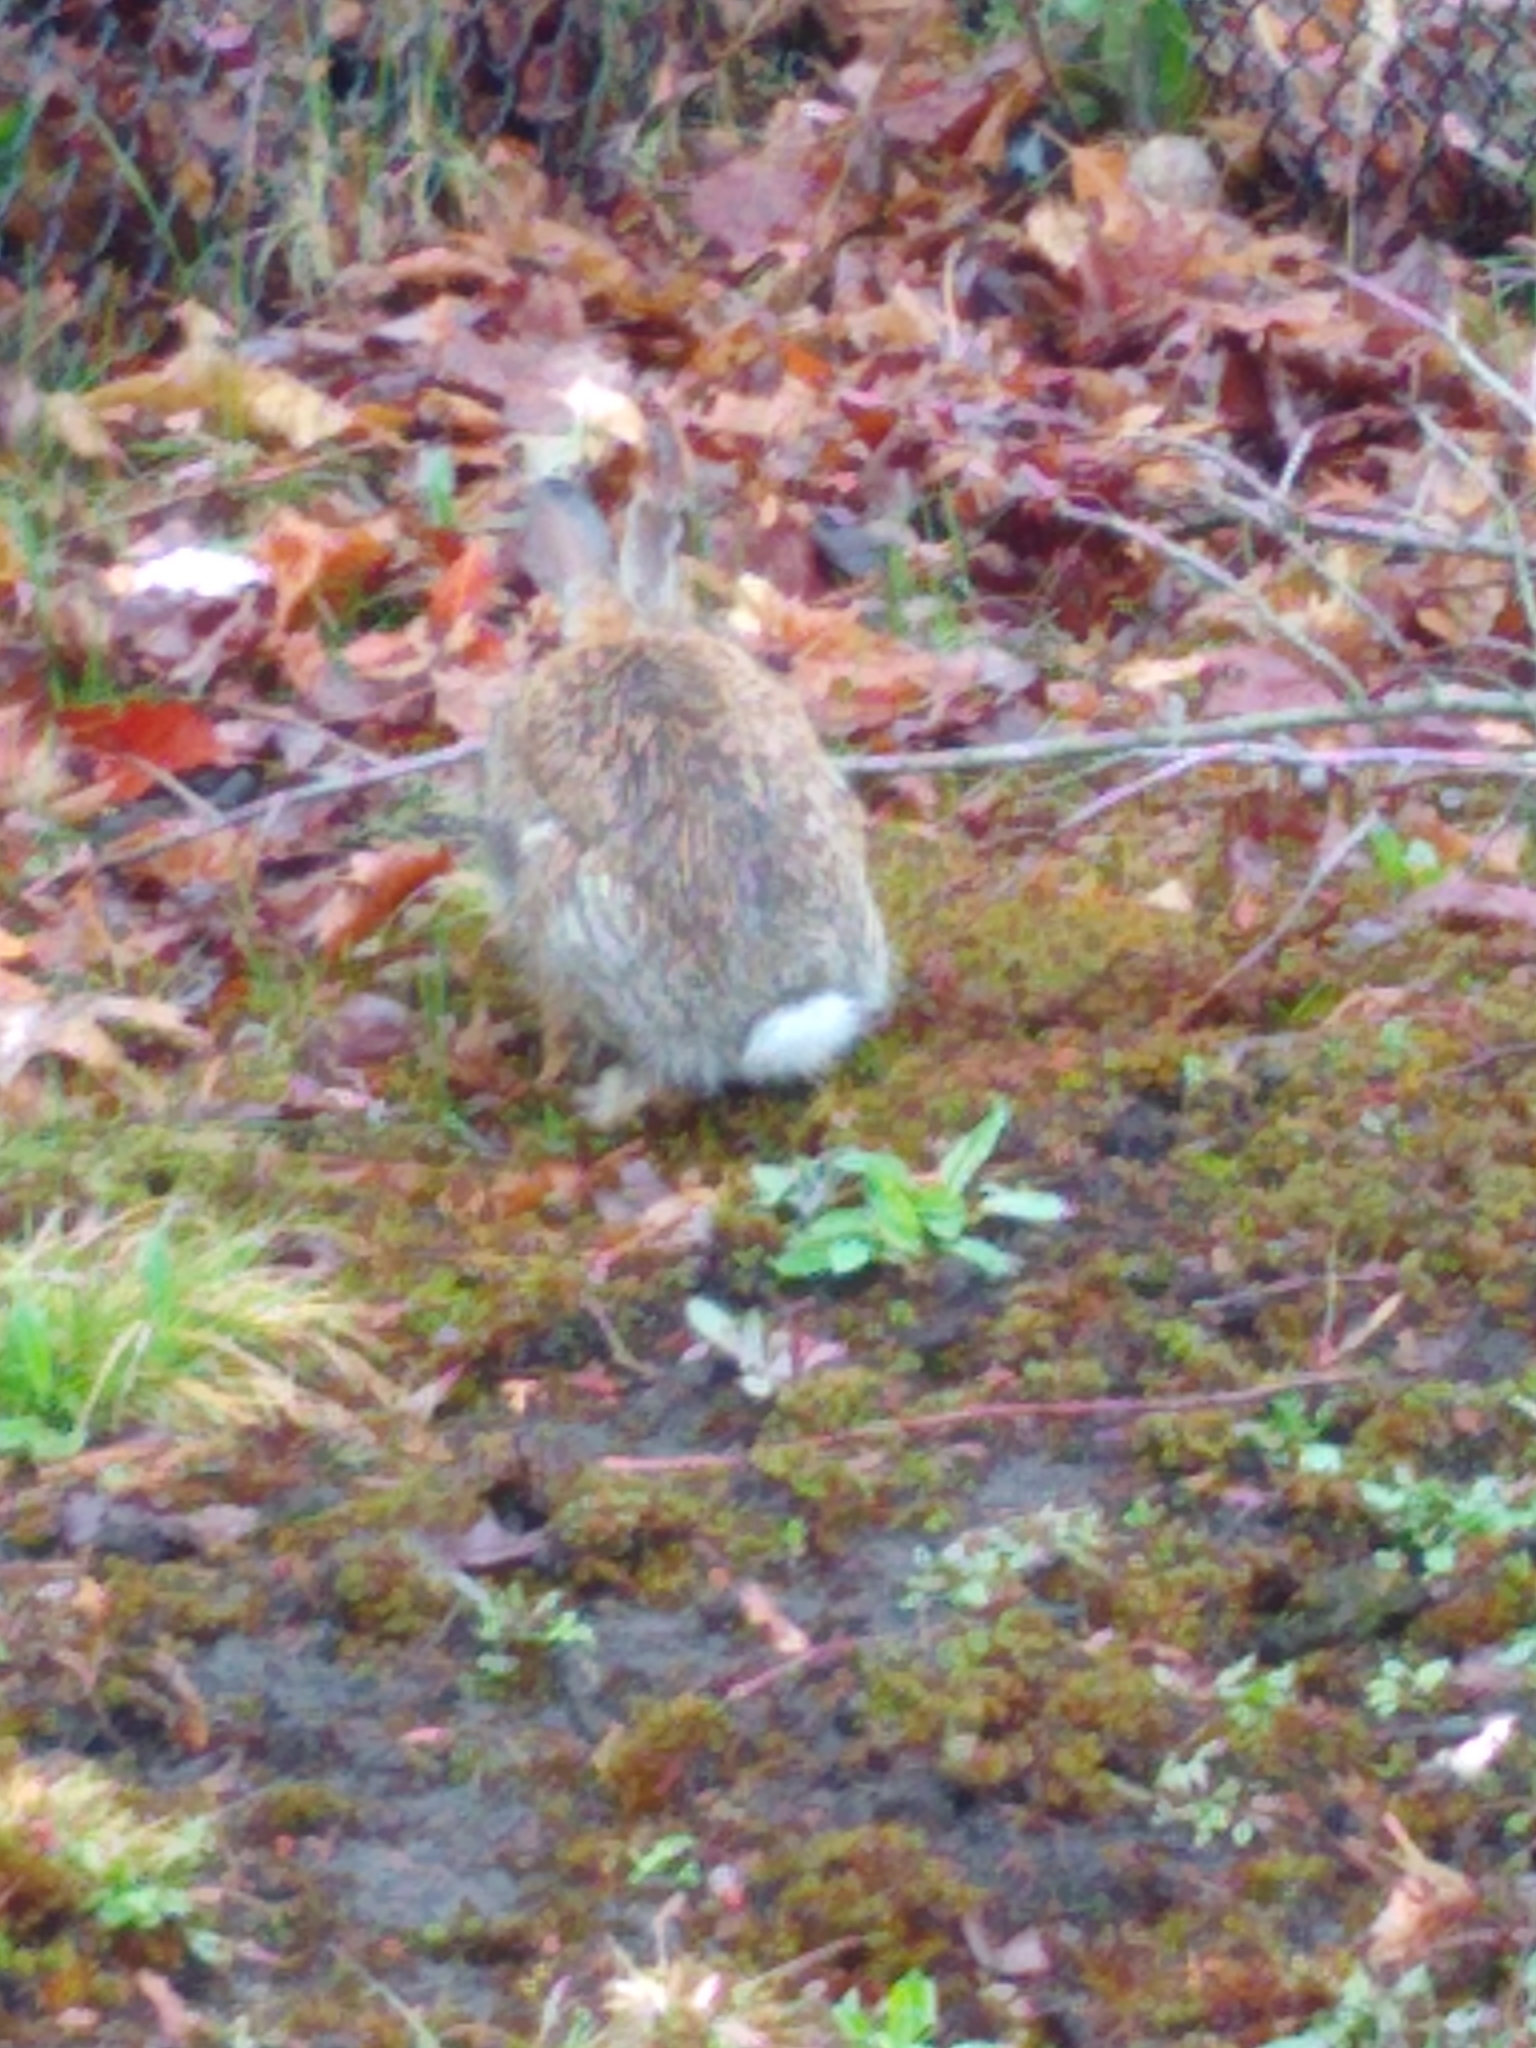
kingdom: Animalia
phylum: Chordata
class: Mammalia
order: Lagomorpha
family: Leporidae
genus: Sylvilagus
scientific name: Sylvilagus floridanus
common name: Eastern cottontail
